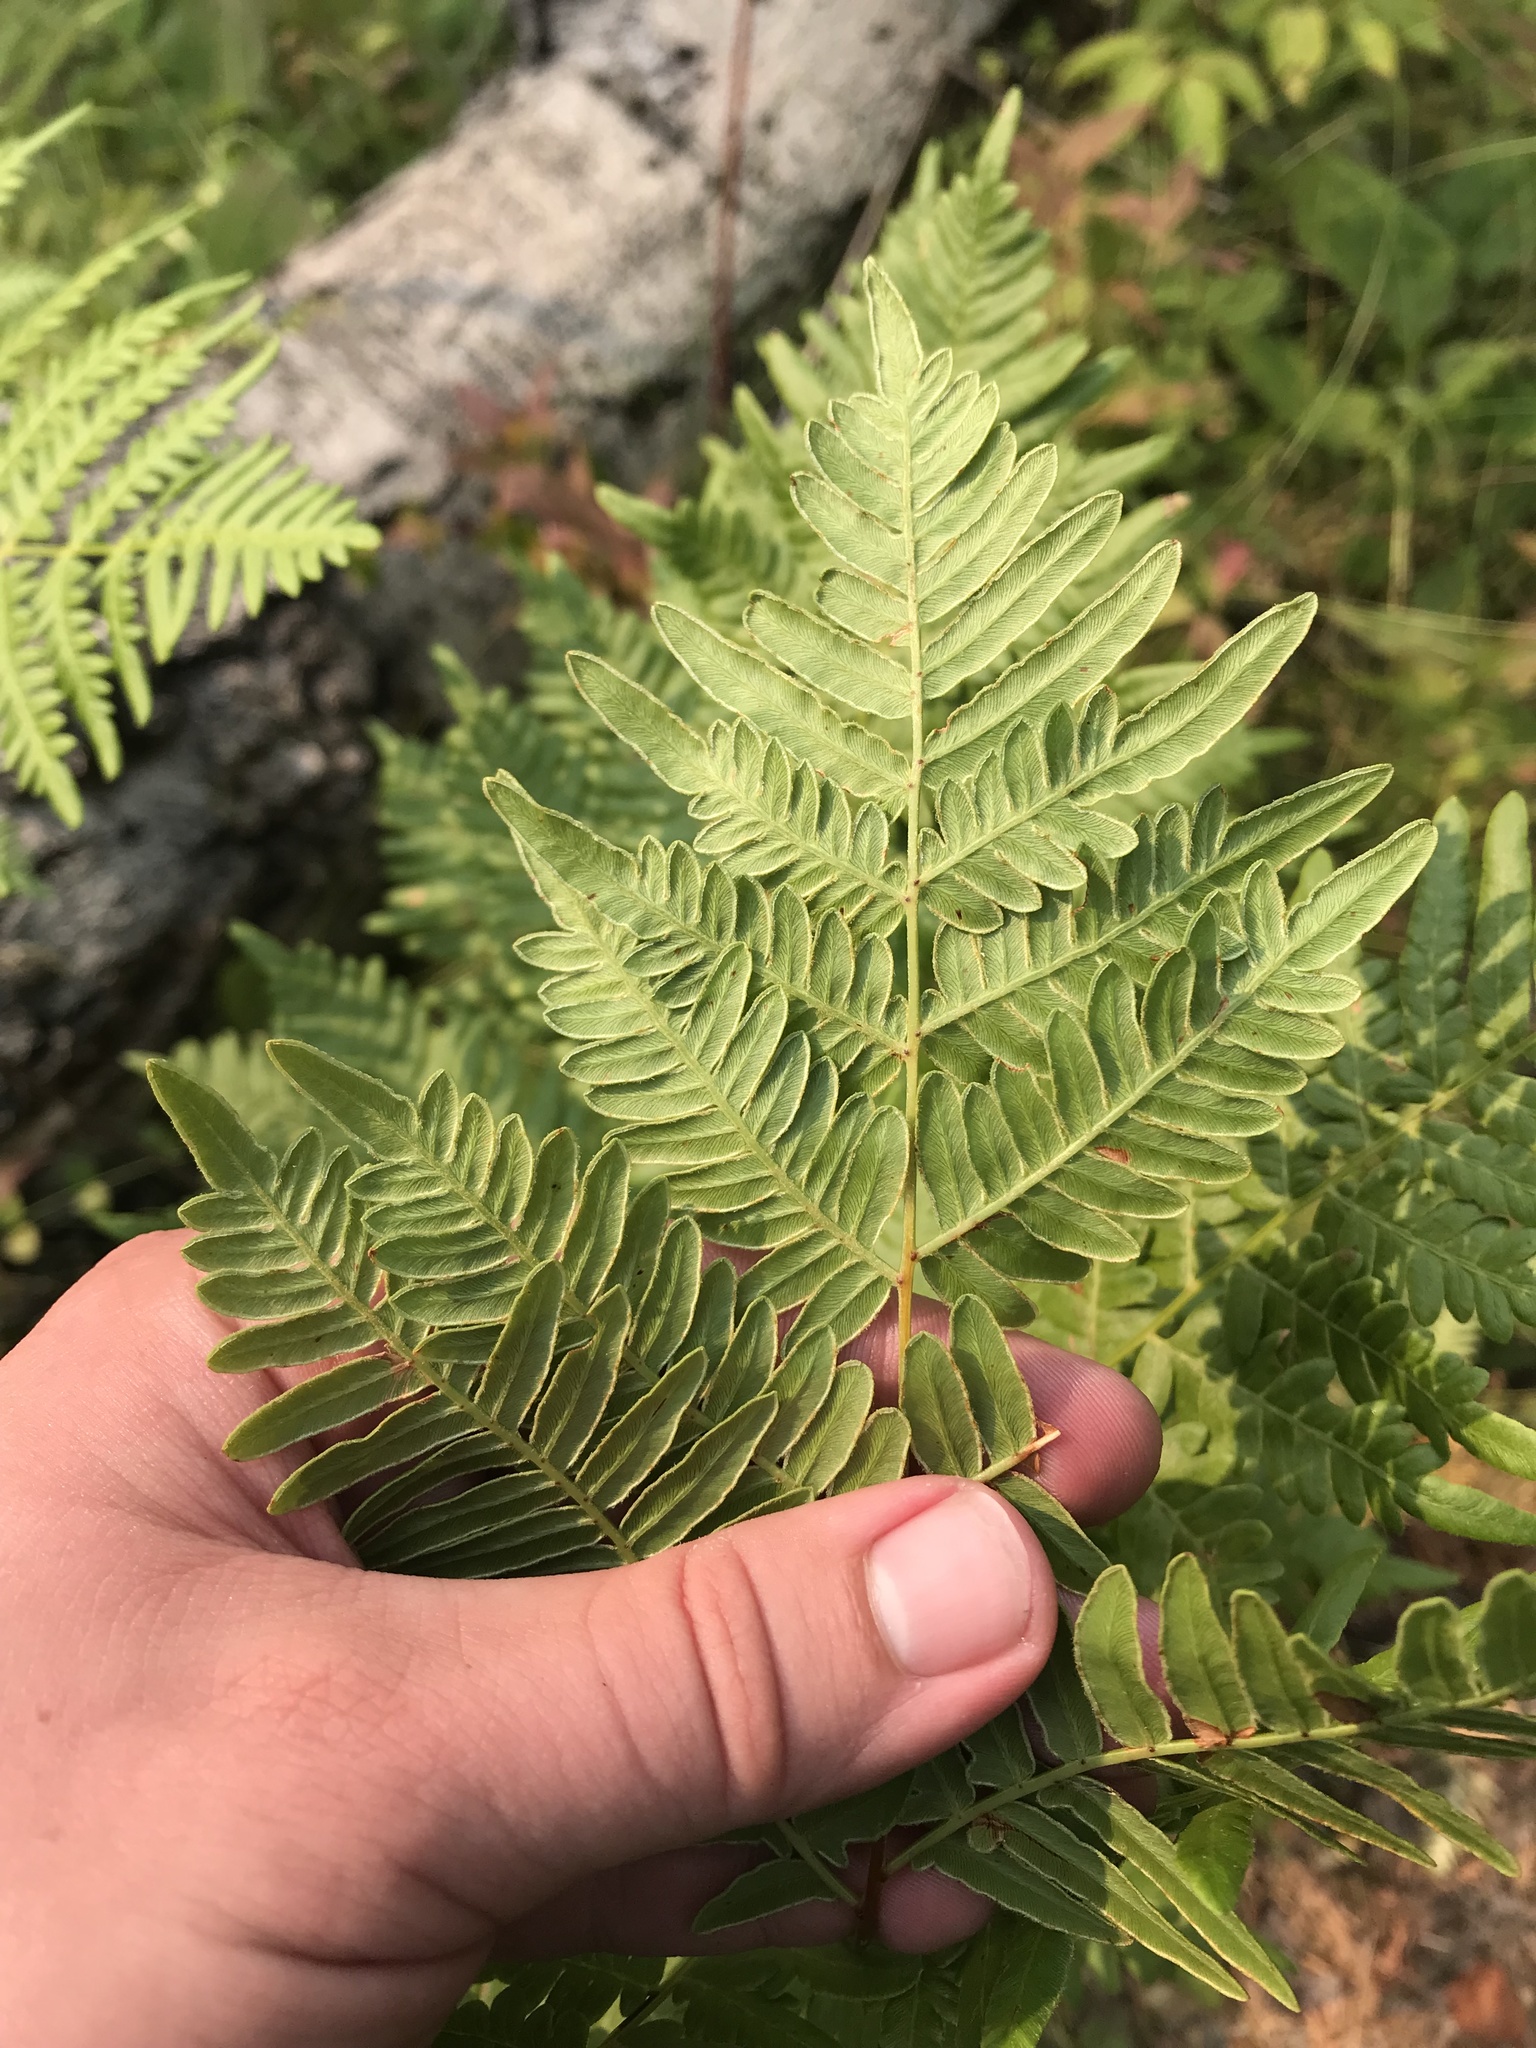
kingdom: Plantae
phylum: Tracheophyta
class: Polypodiopsida
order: Polypodiales
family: Dennstaedtiaceae
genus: Pteridium
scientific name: Pteridium aquilinum
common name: Bracken
